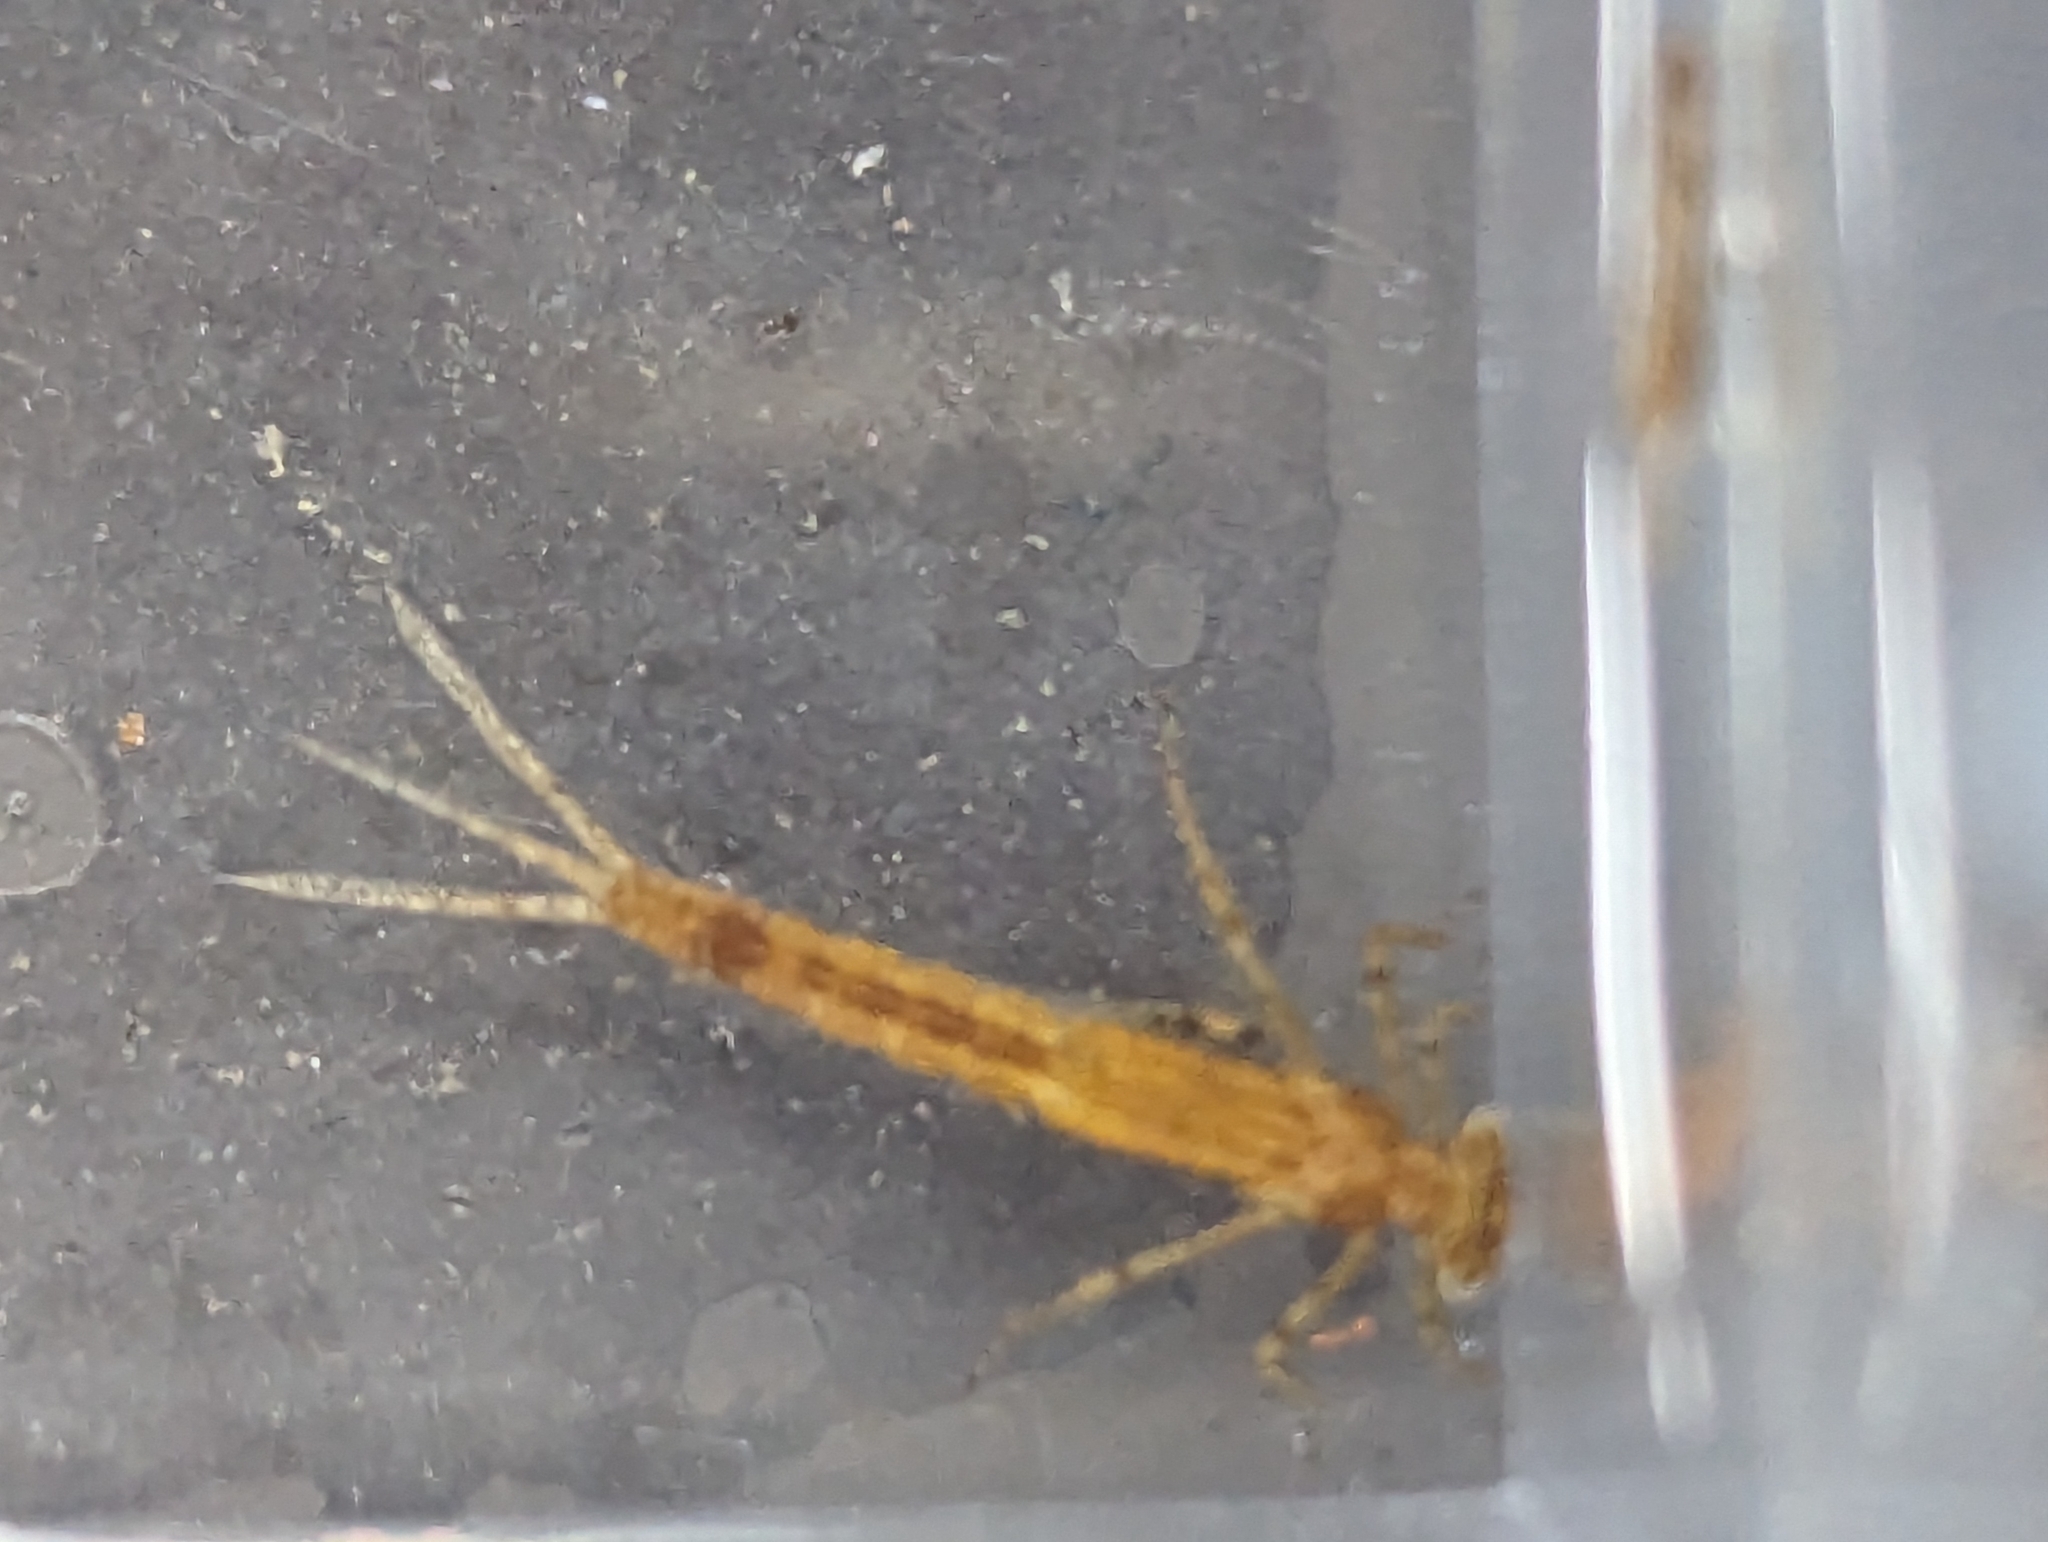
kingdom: Animalia
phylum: Arthropoda
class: Insecta
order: Odonata
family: Coenagrionidae
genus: Ischnura
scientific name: Ischnura senegalensis
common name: Tropical bluetail
